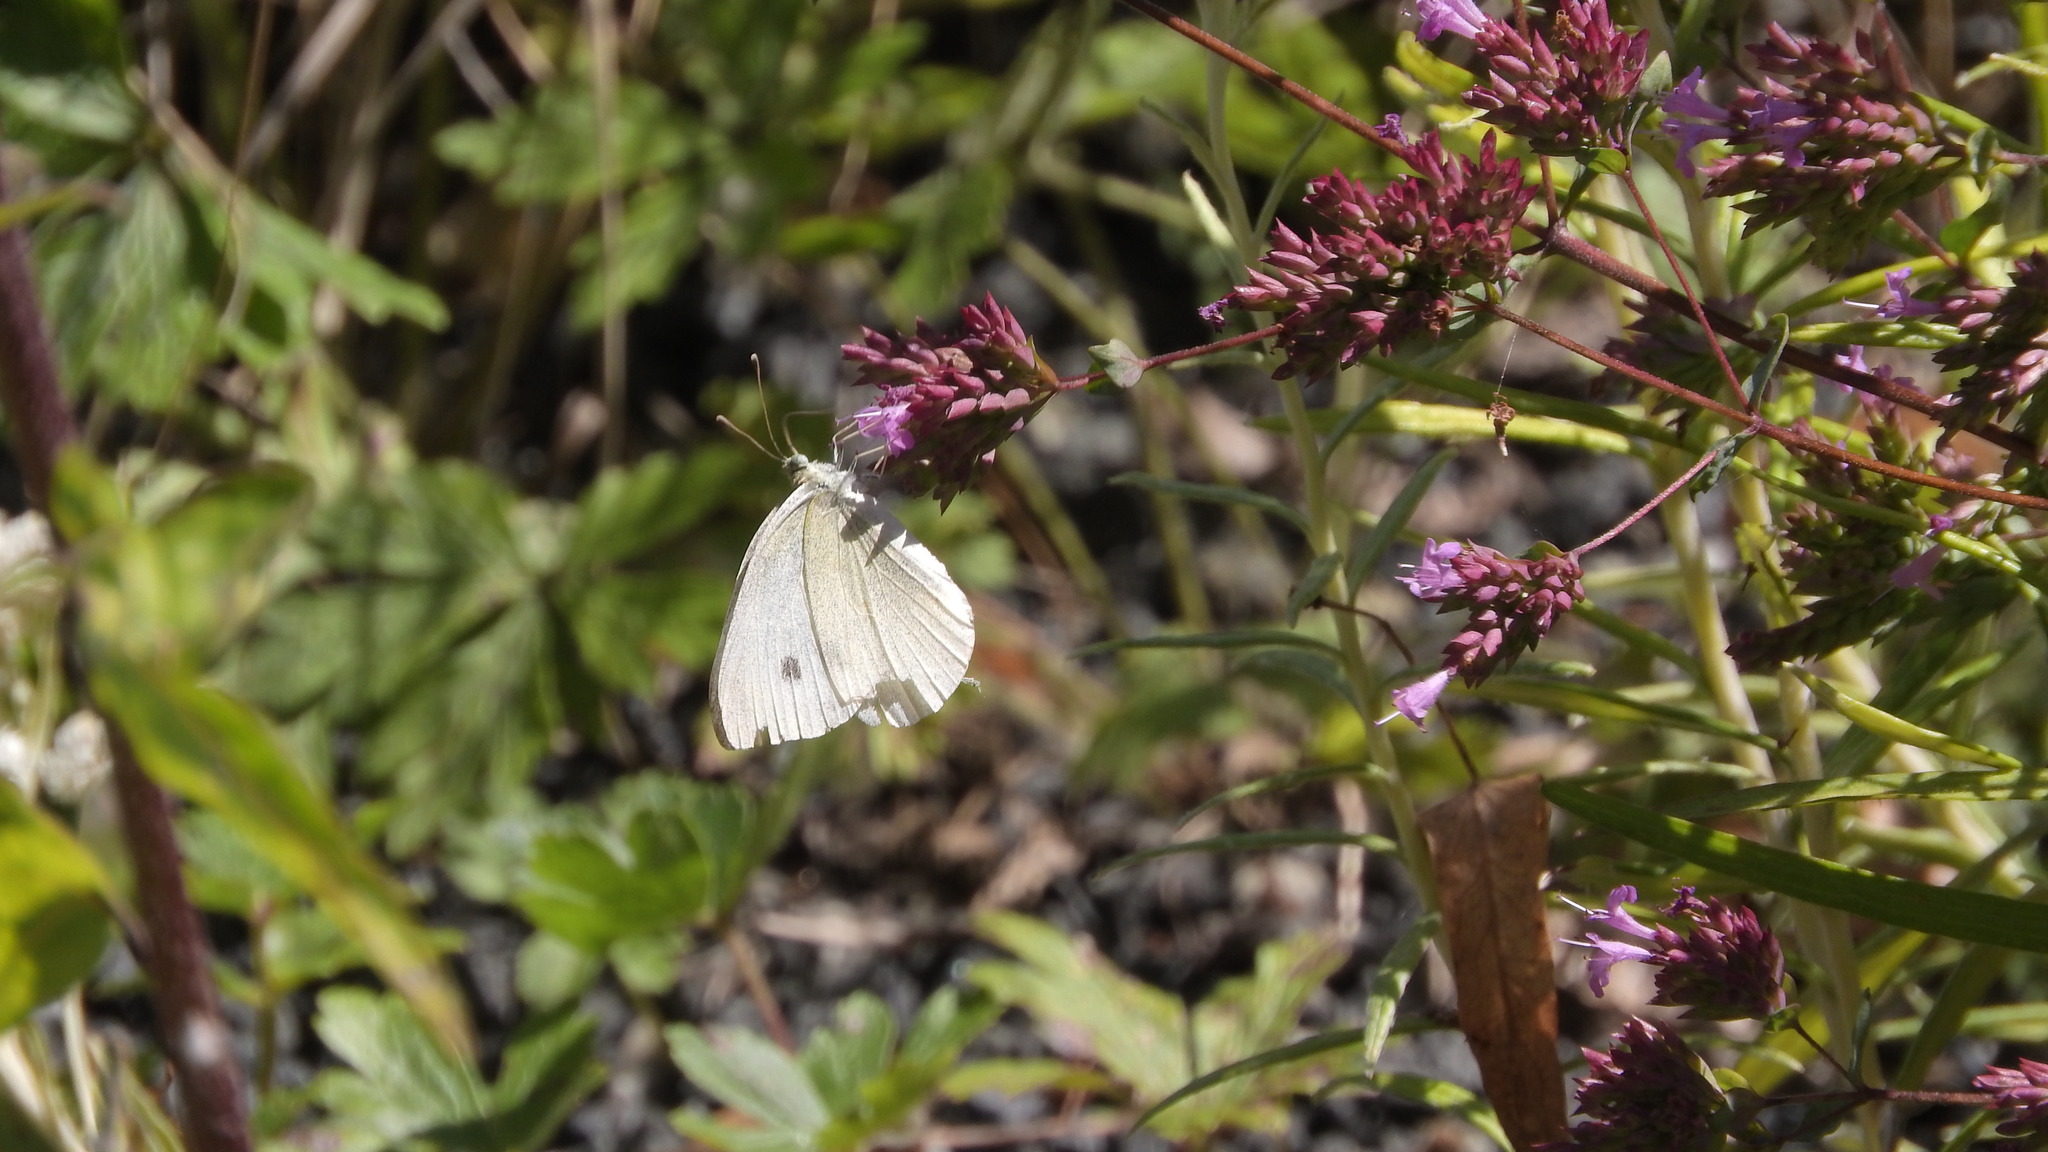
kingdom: Animalia
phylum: Arthropoda
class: Insecta
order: Lepidoptera
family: Pieridae
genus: Pieris
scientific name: Pieris rapae
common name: Small white
